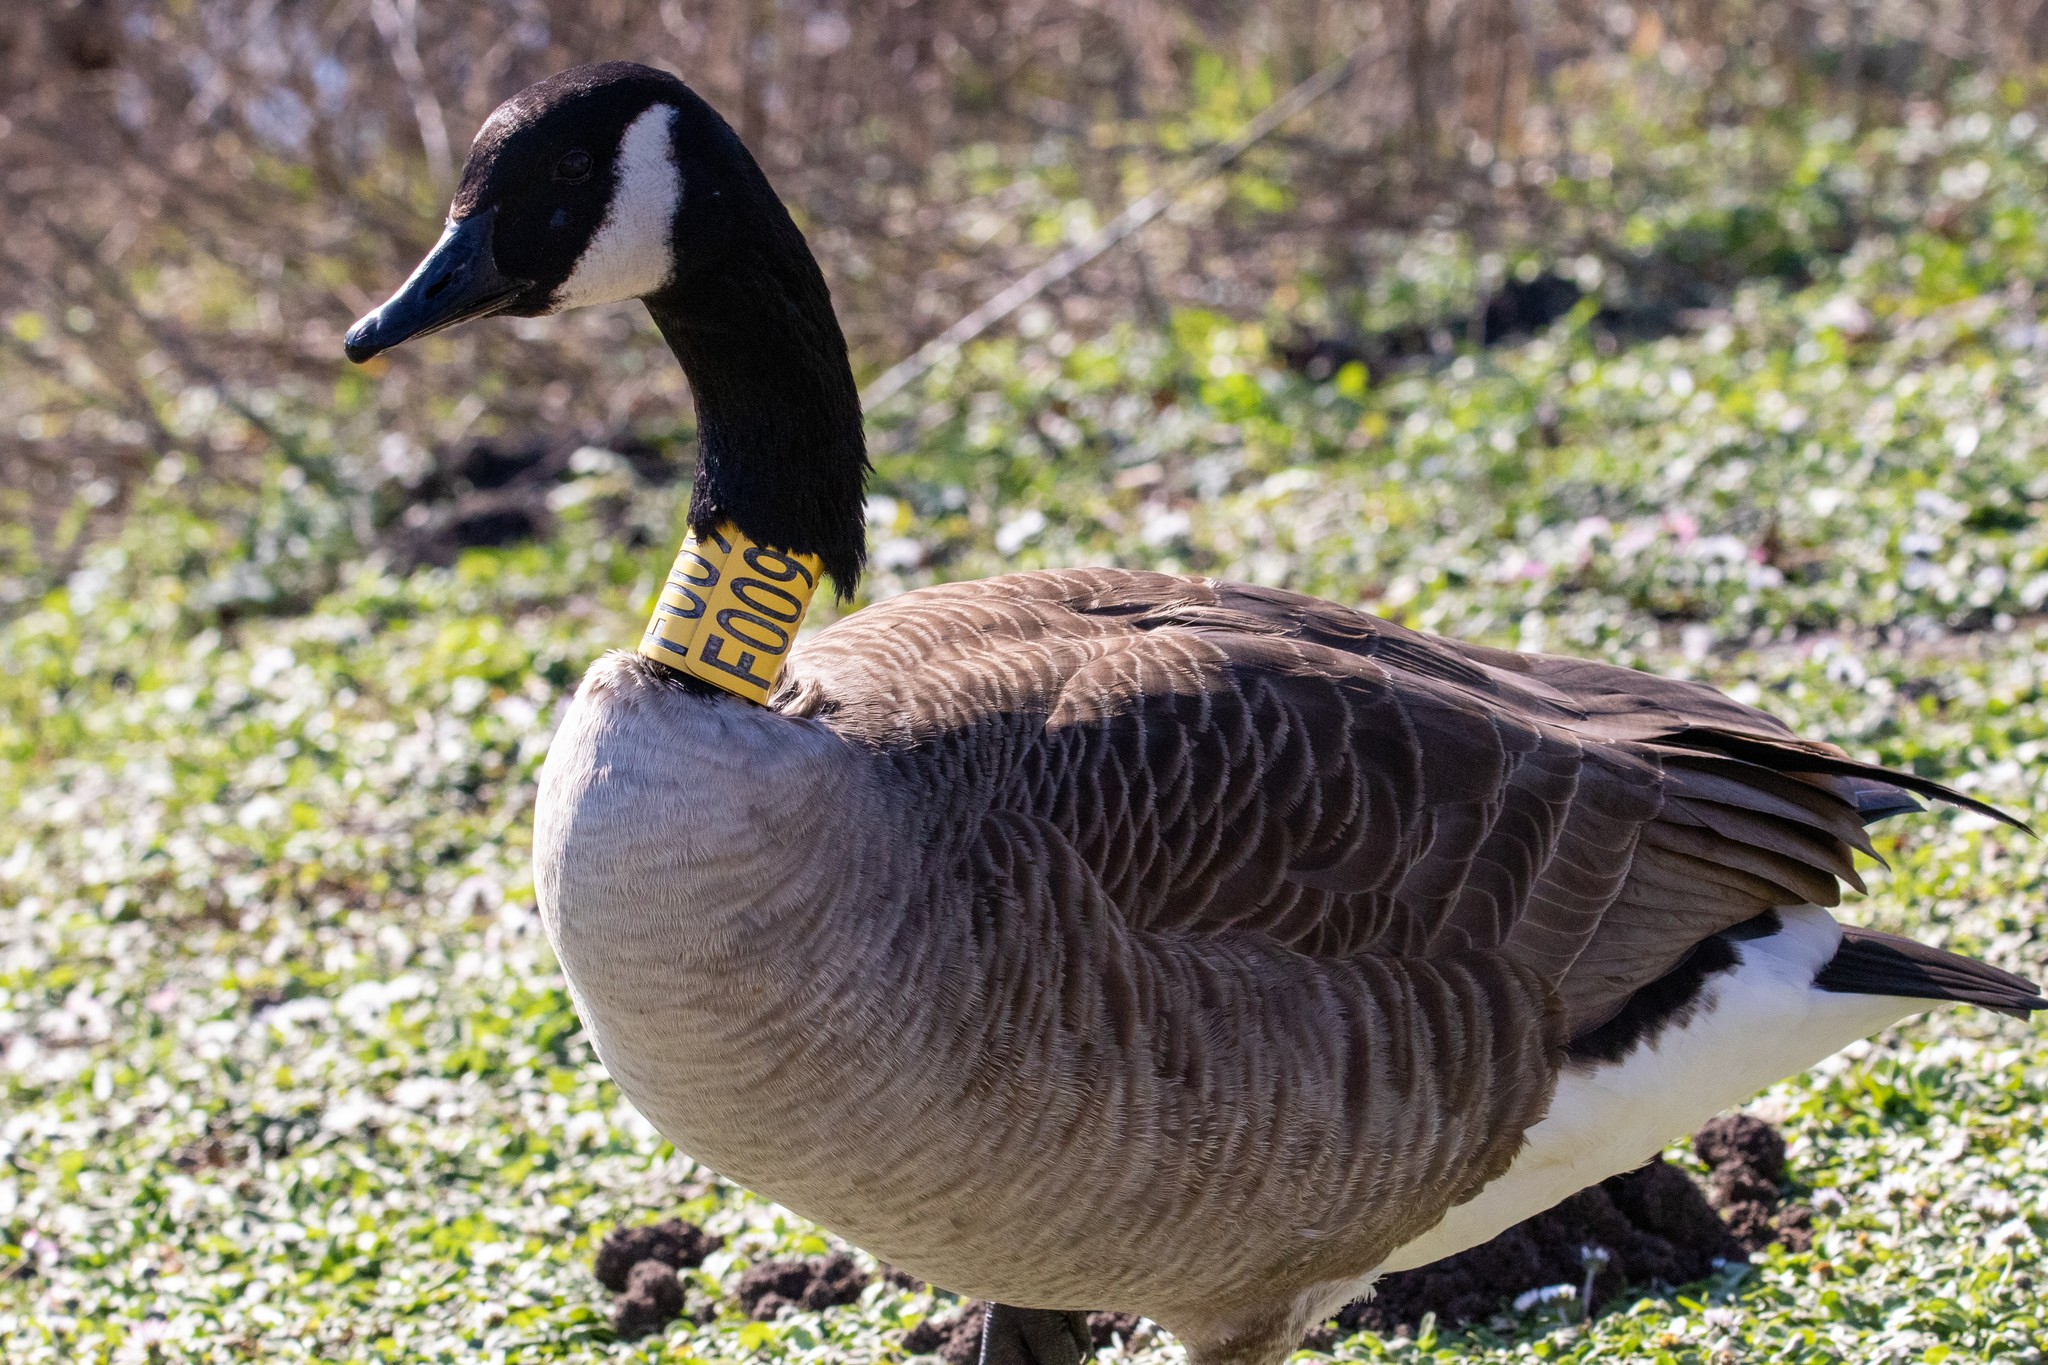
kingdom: Animalia
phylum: Chordata
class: Aves
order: Anseriformes
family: Anatidae
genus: Branta
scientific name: Branta canadensis
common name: Canada goose
